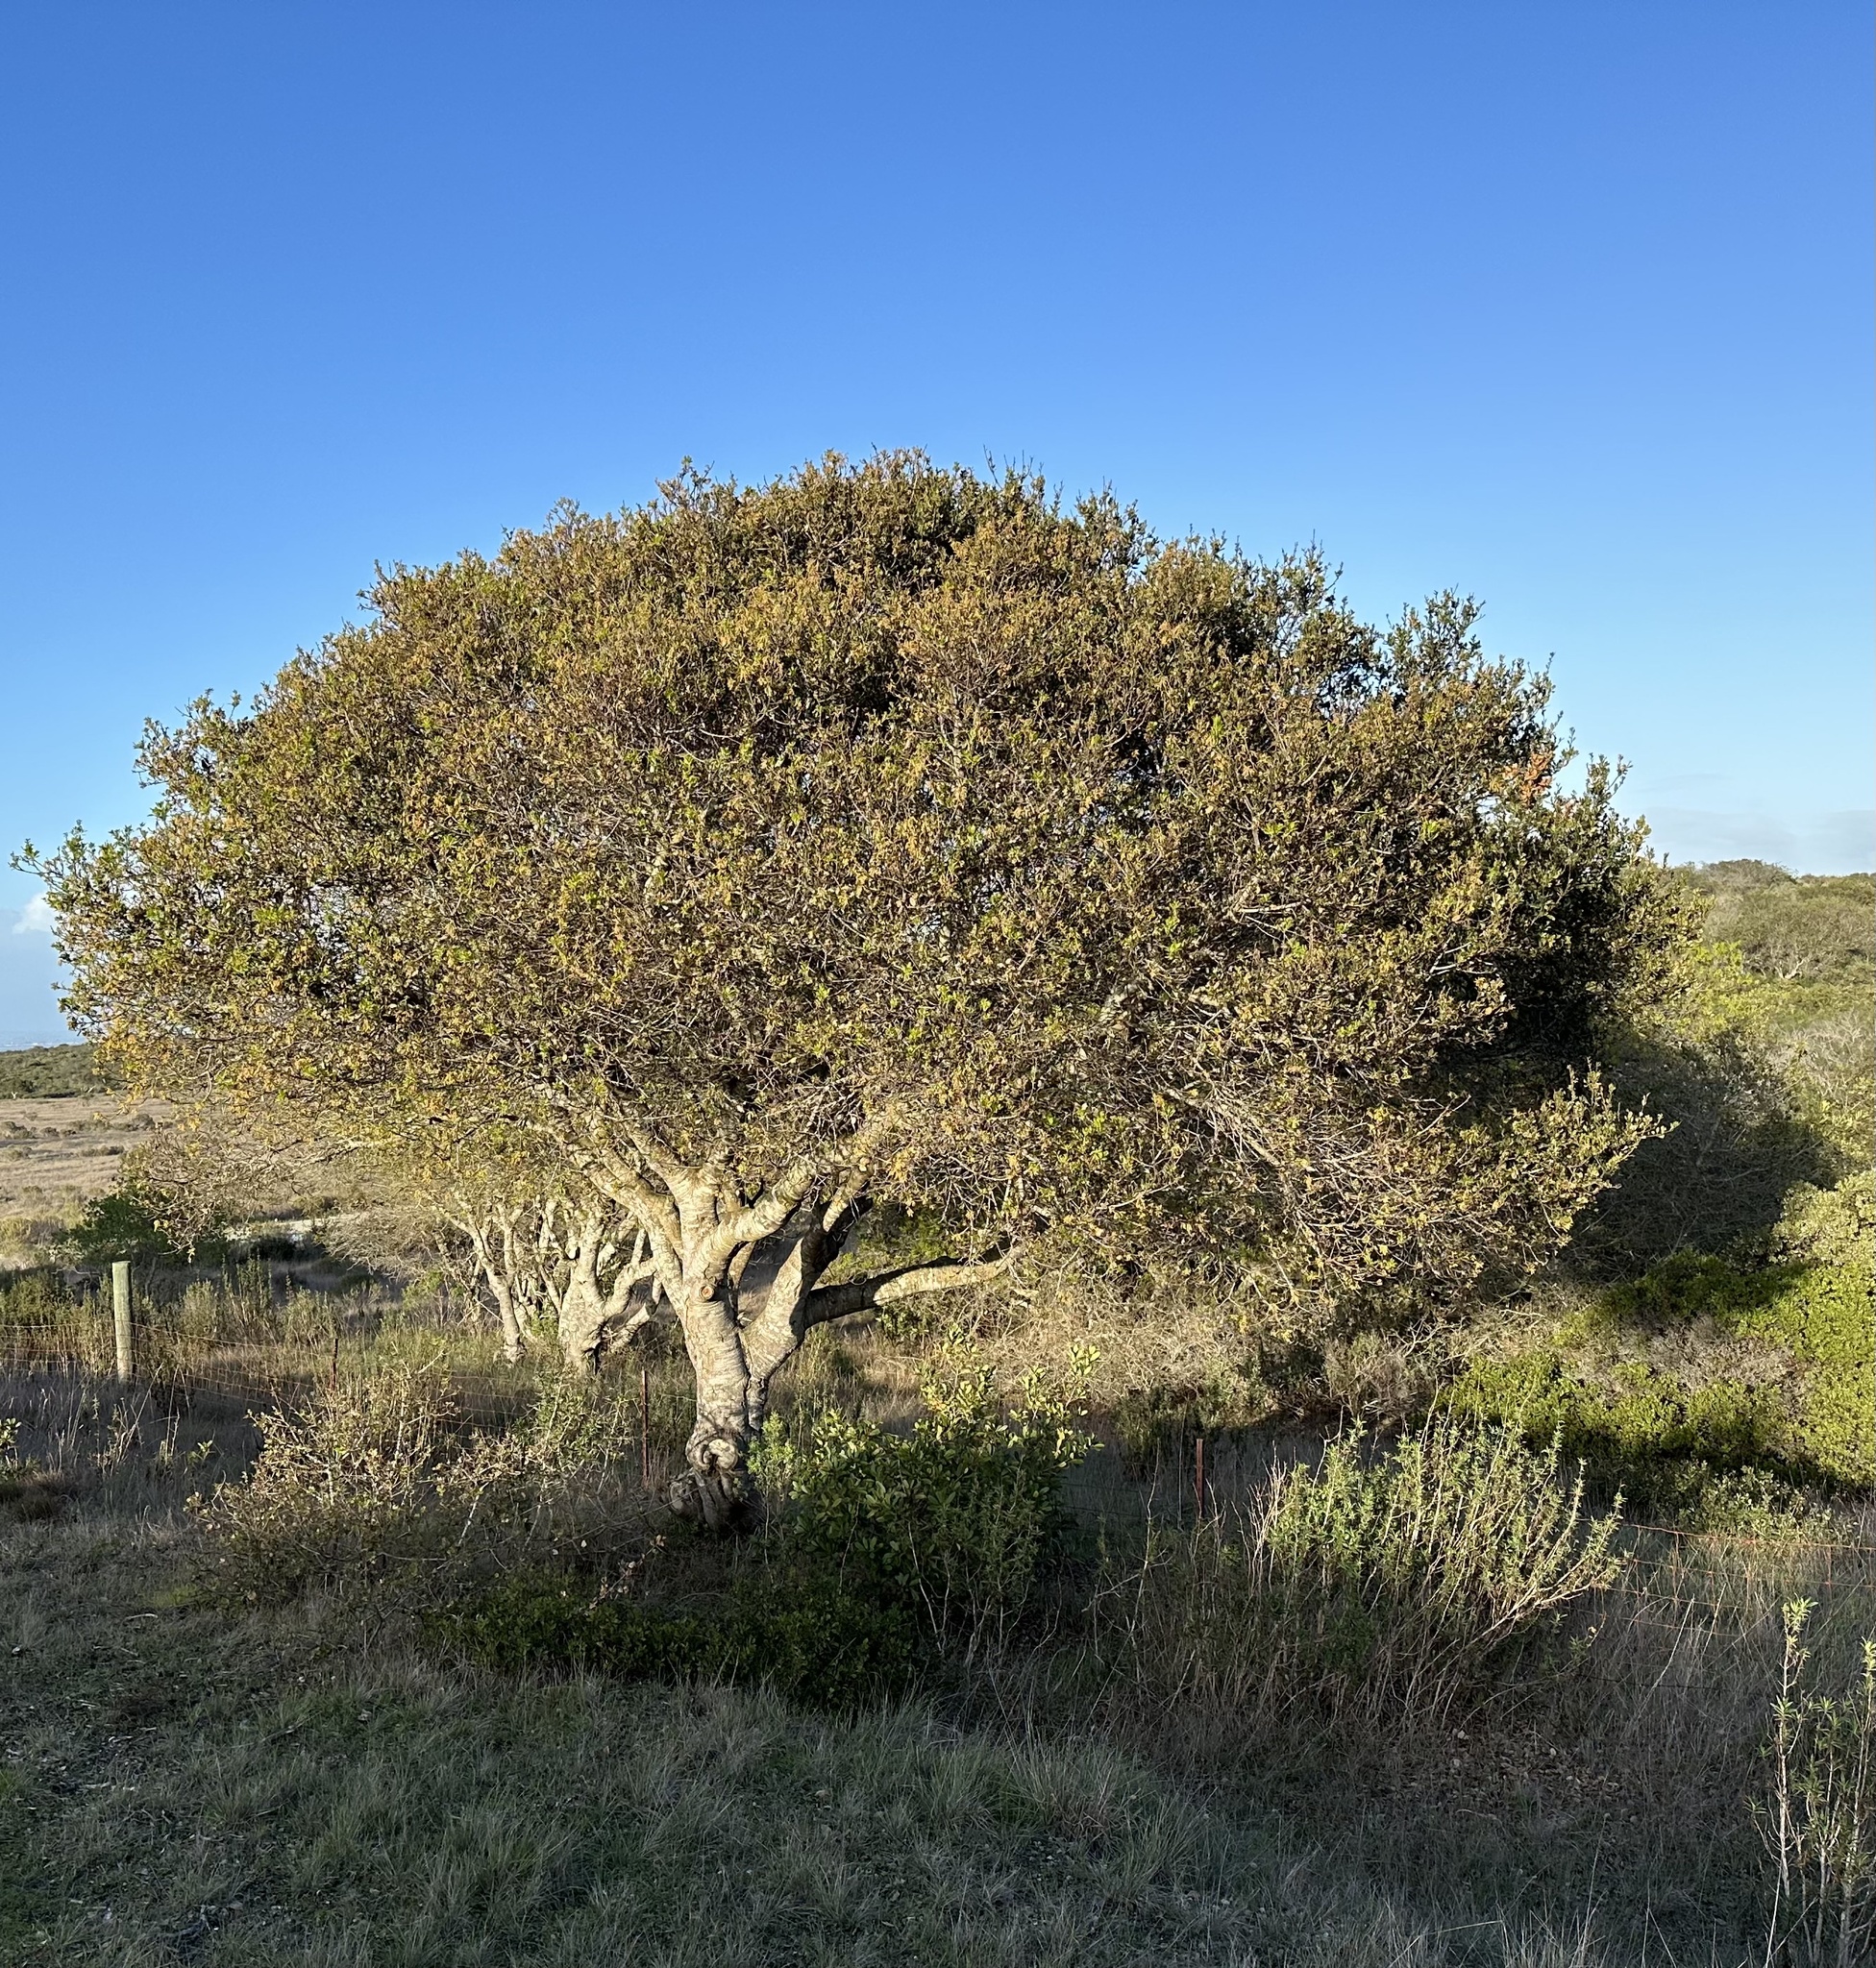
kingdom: Plantae
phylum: Tracheophyta
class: Magnoliopsida
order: Fagales
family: Fagaceae
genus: Quercus
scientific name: Quercus agrifolia
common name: California live oak
